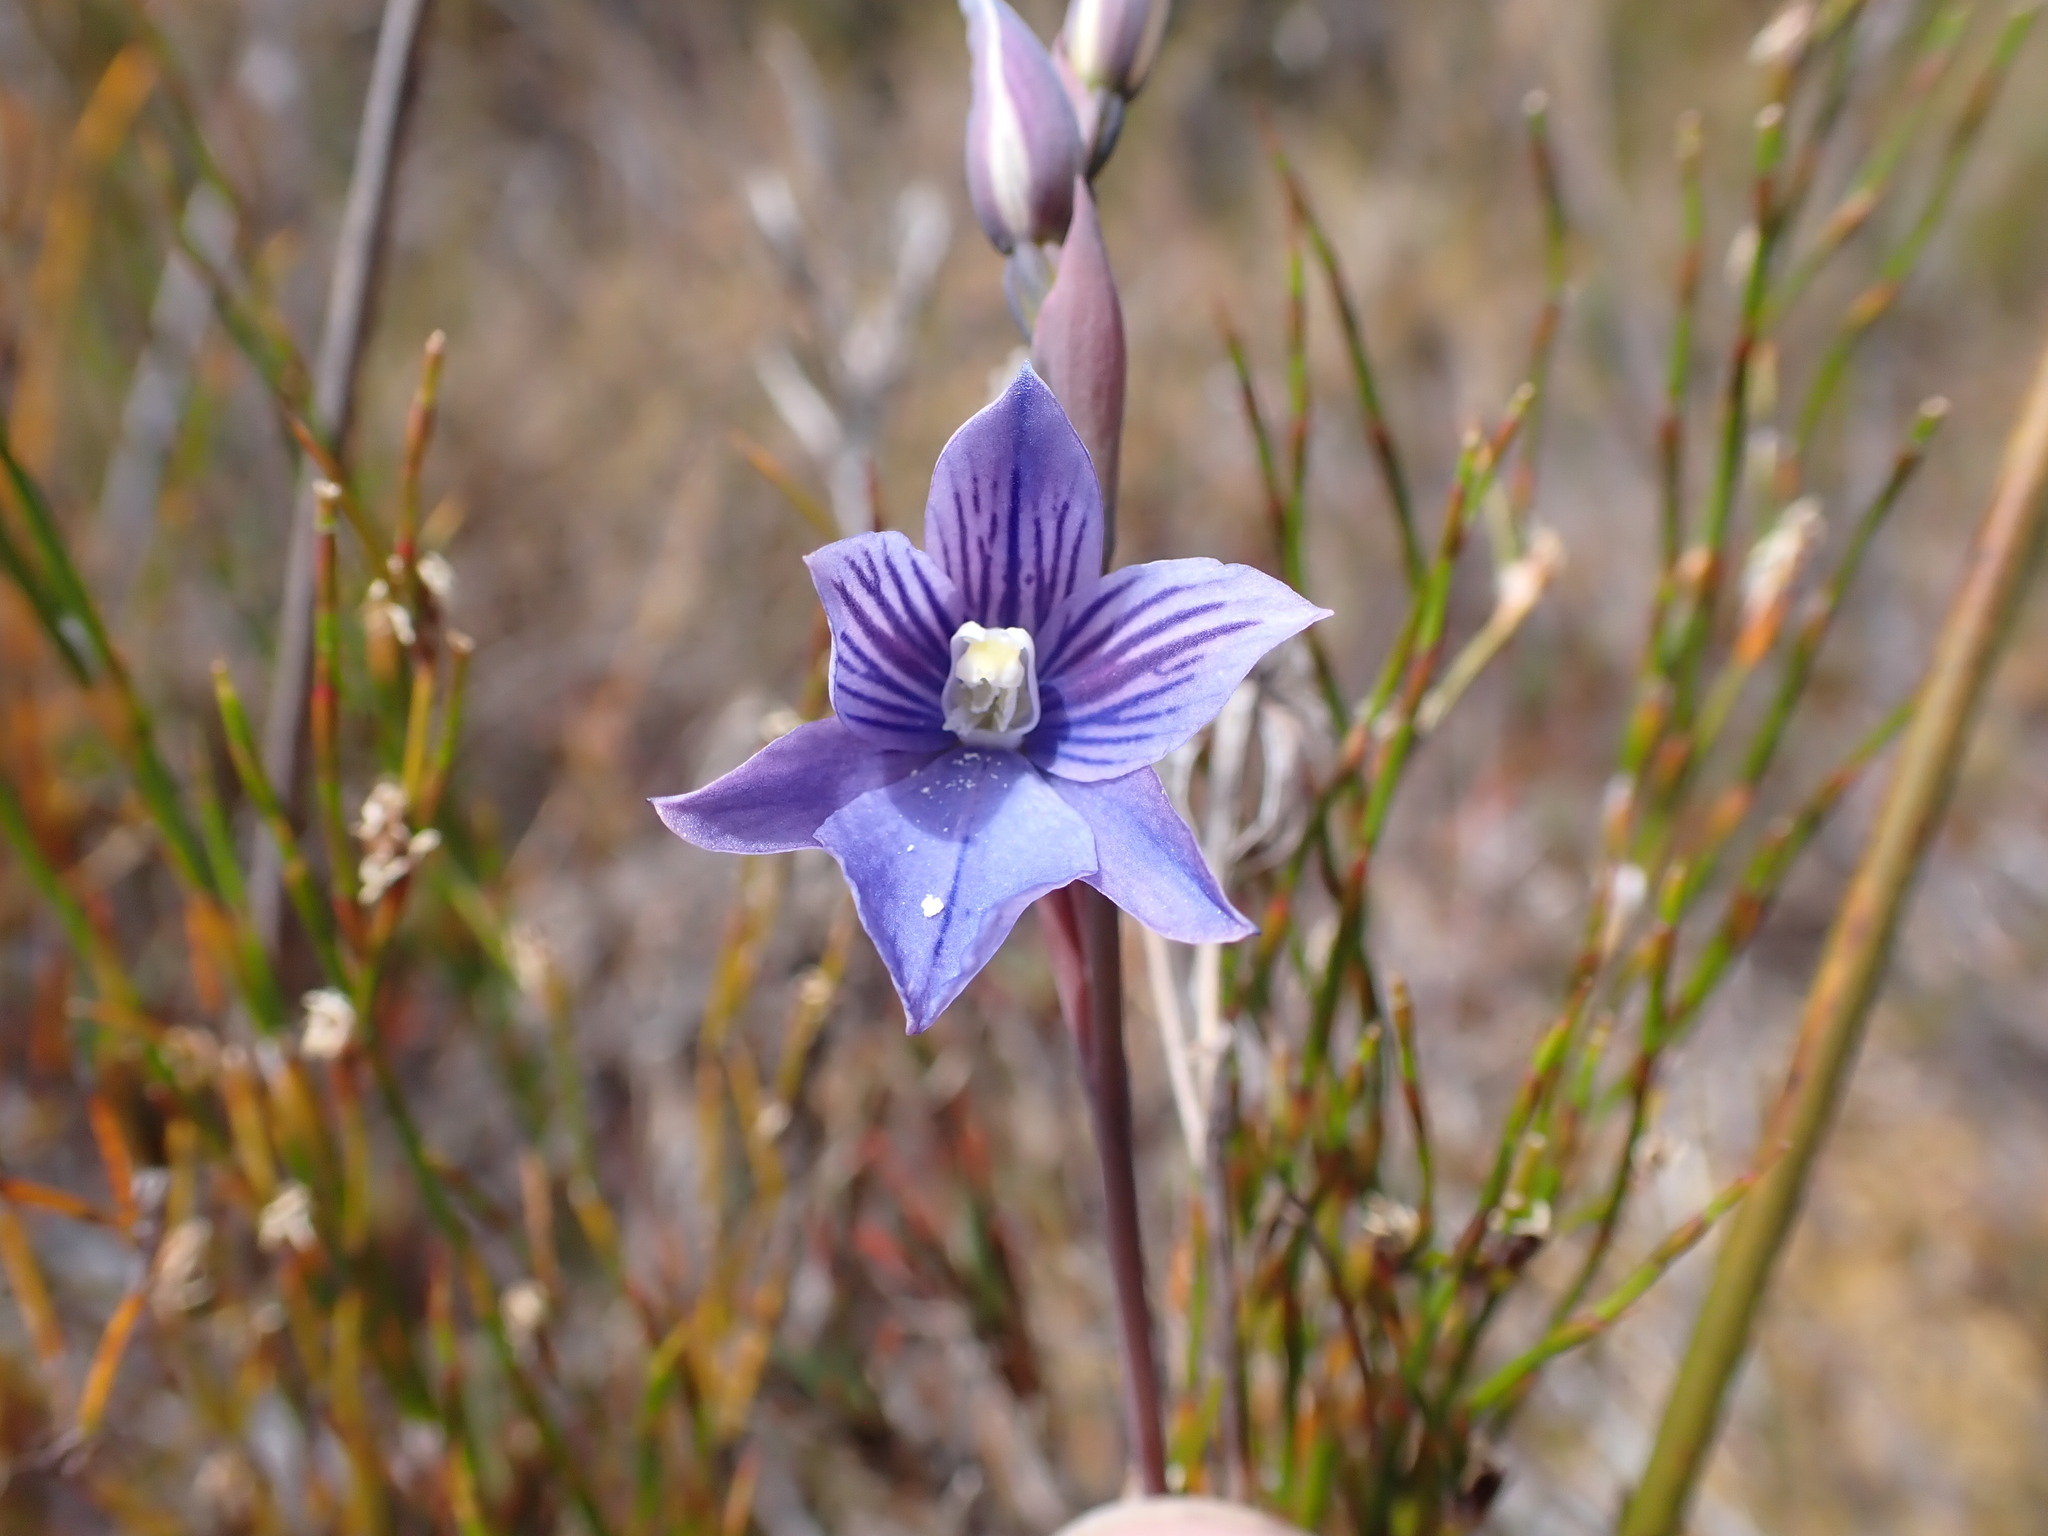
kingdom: Plantae
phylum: Tracheophyta
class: Liliopsida
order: Asparagales
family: Orchidaceae
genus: Thelymitra
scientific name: Thelymitra cyanea
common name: Blue sun-orchid
